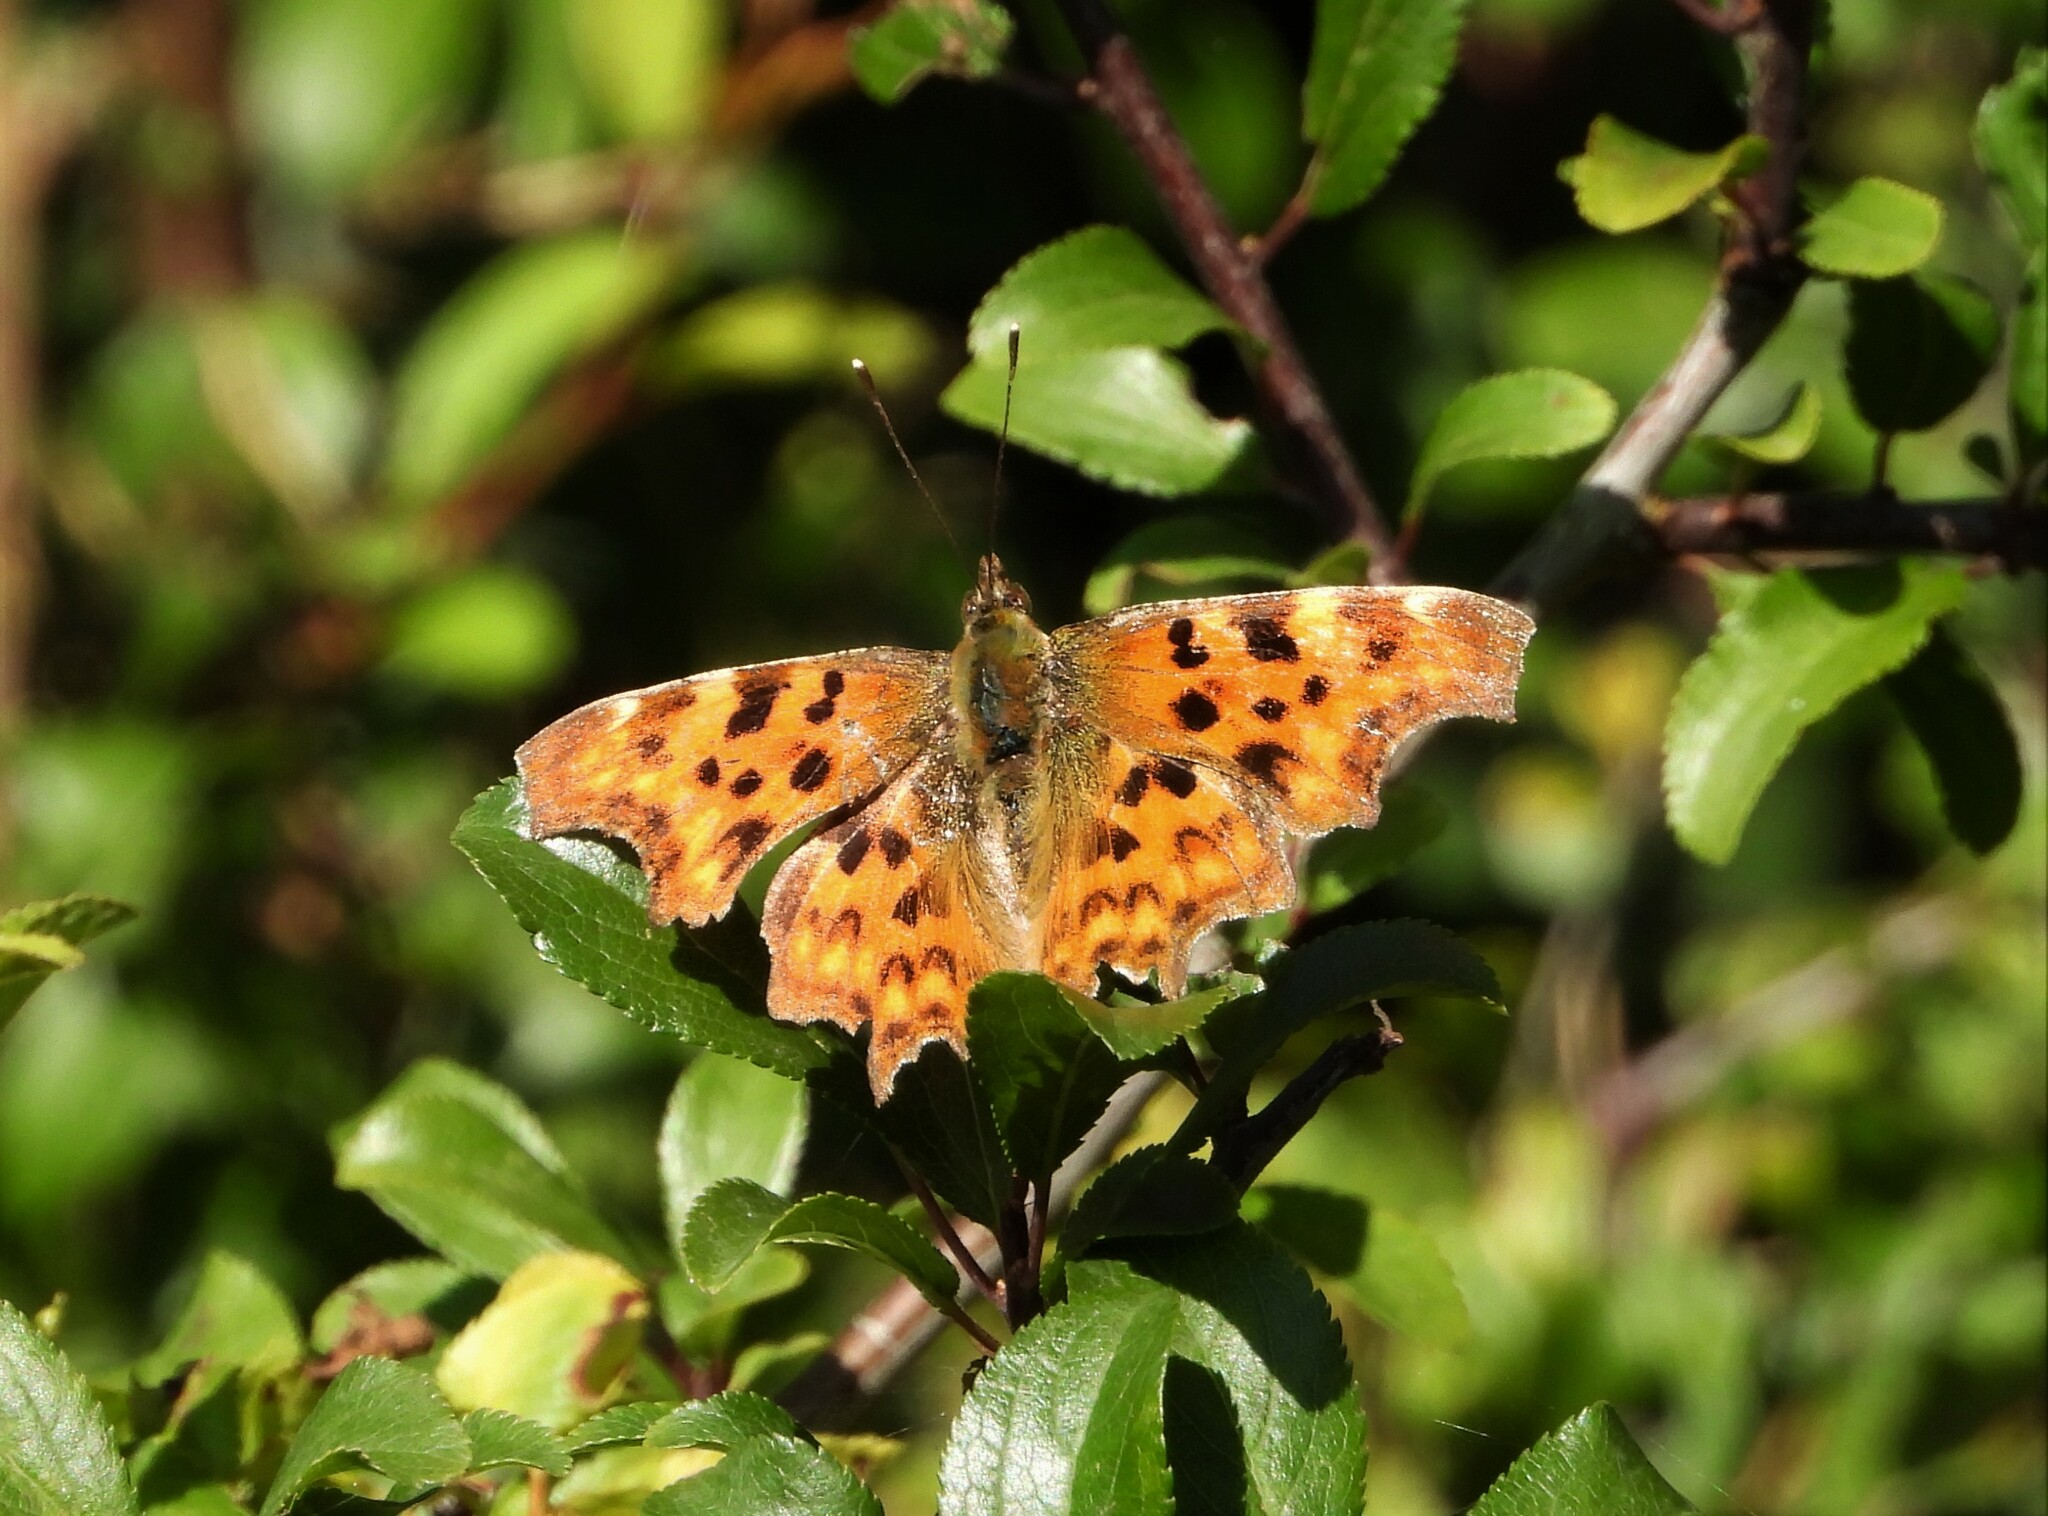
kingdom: Animalia
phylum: Arthropoda
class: Insecta
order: Lepidoptera
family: Nymphalidae
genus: Polygonia
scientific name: Polygonia c-album
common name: Comma
